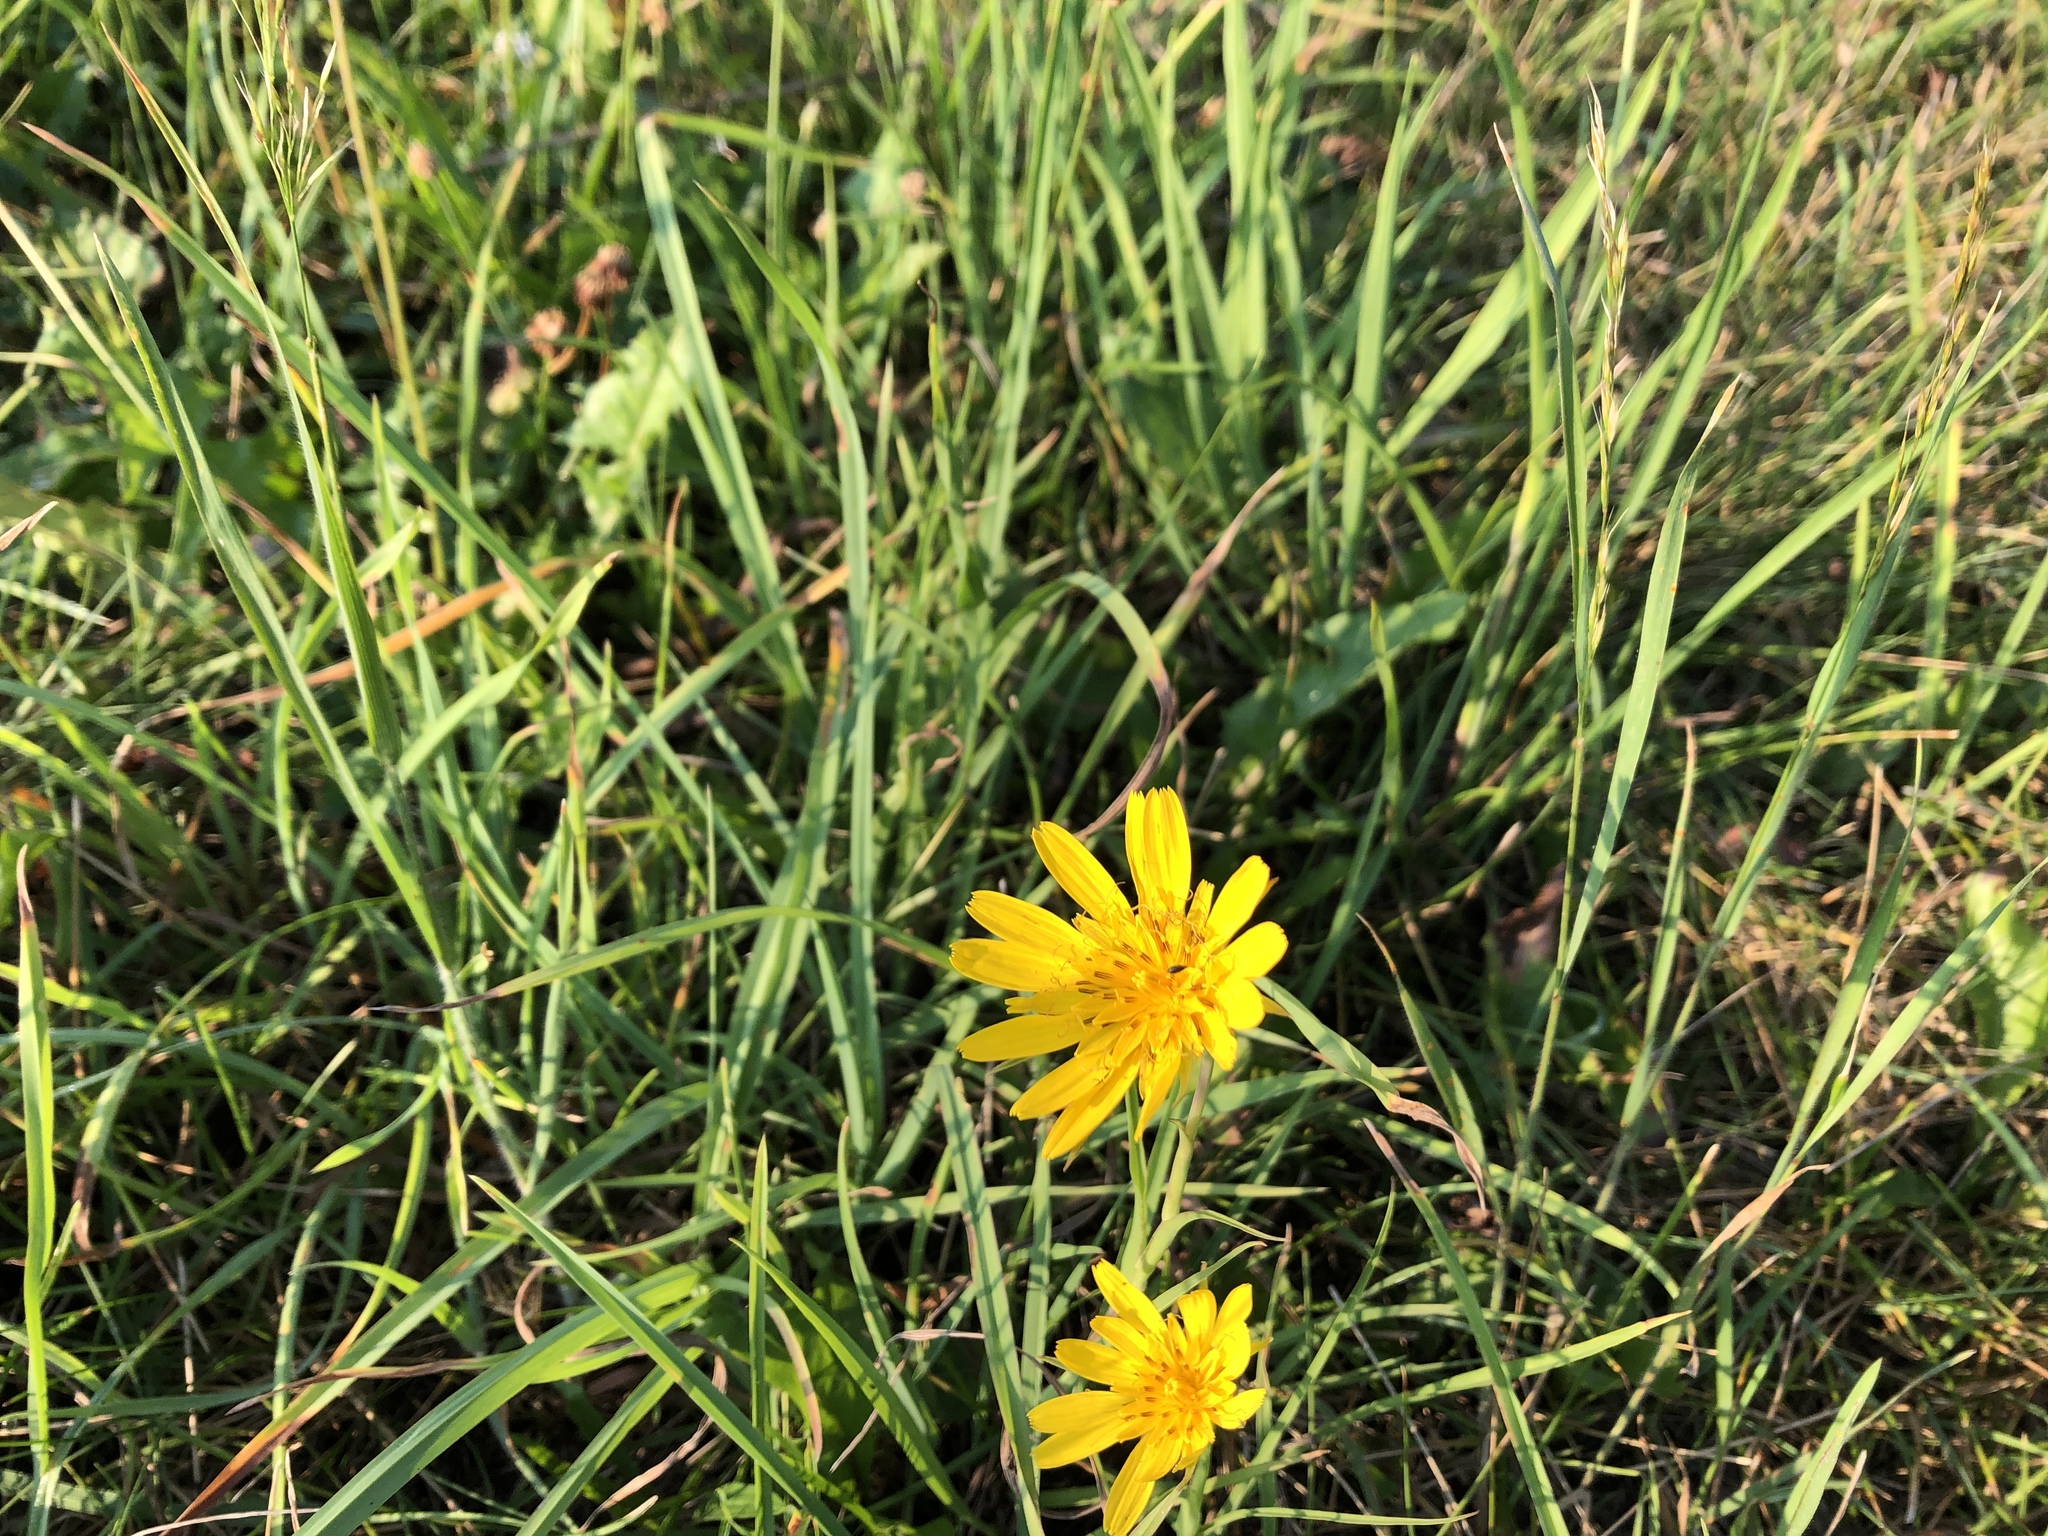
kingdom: Plantae
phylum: Tracheophyta
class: Magnoliopsida
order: Asterales
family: Asteraceae
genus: Tragopogon
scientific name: Tragopogon orientalis
